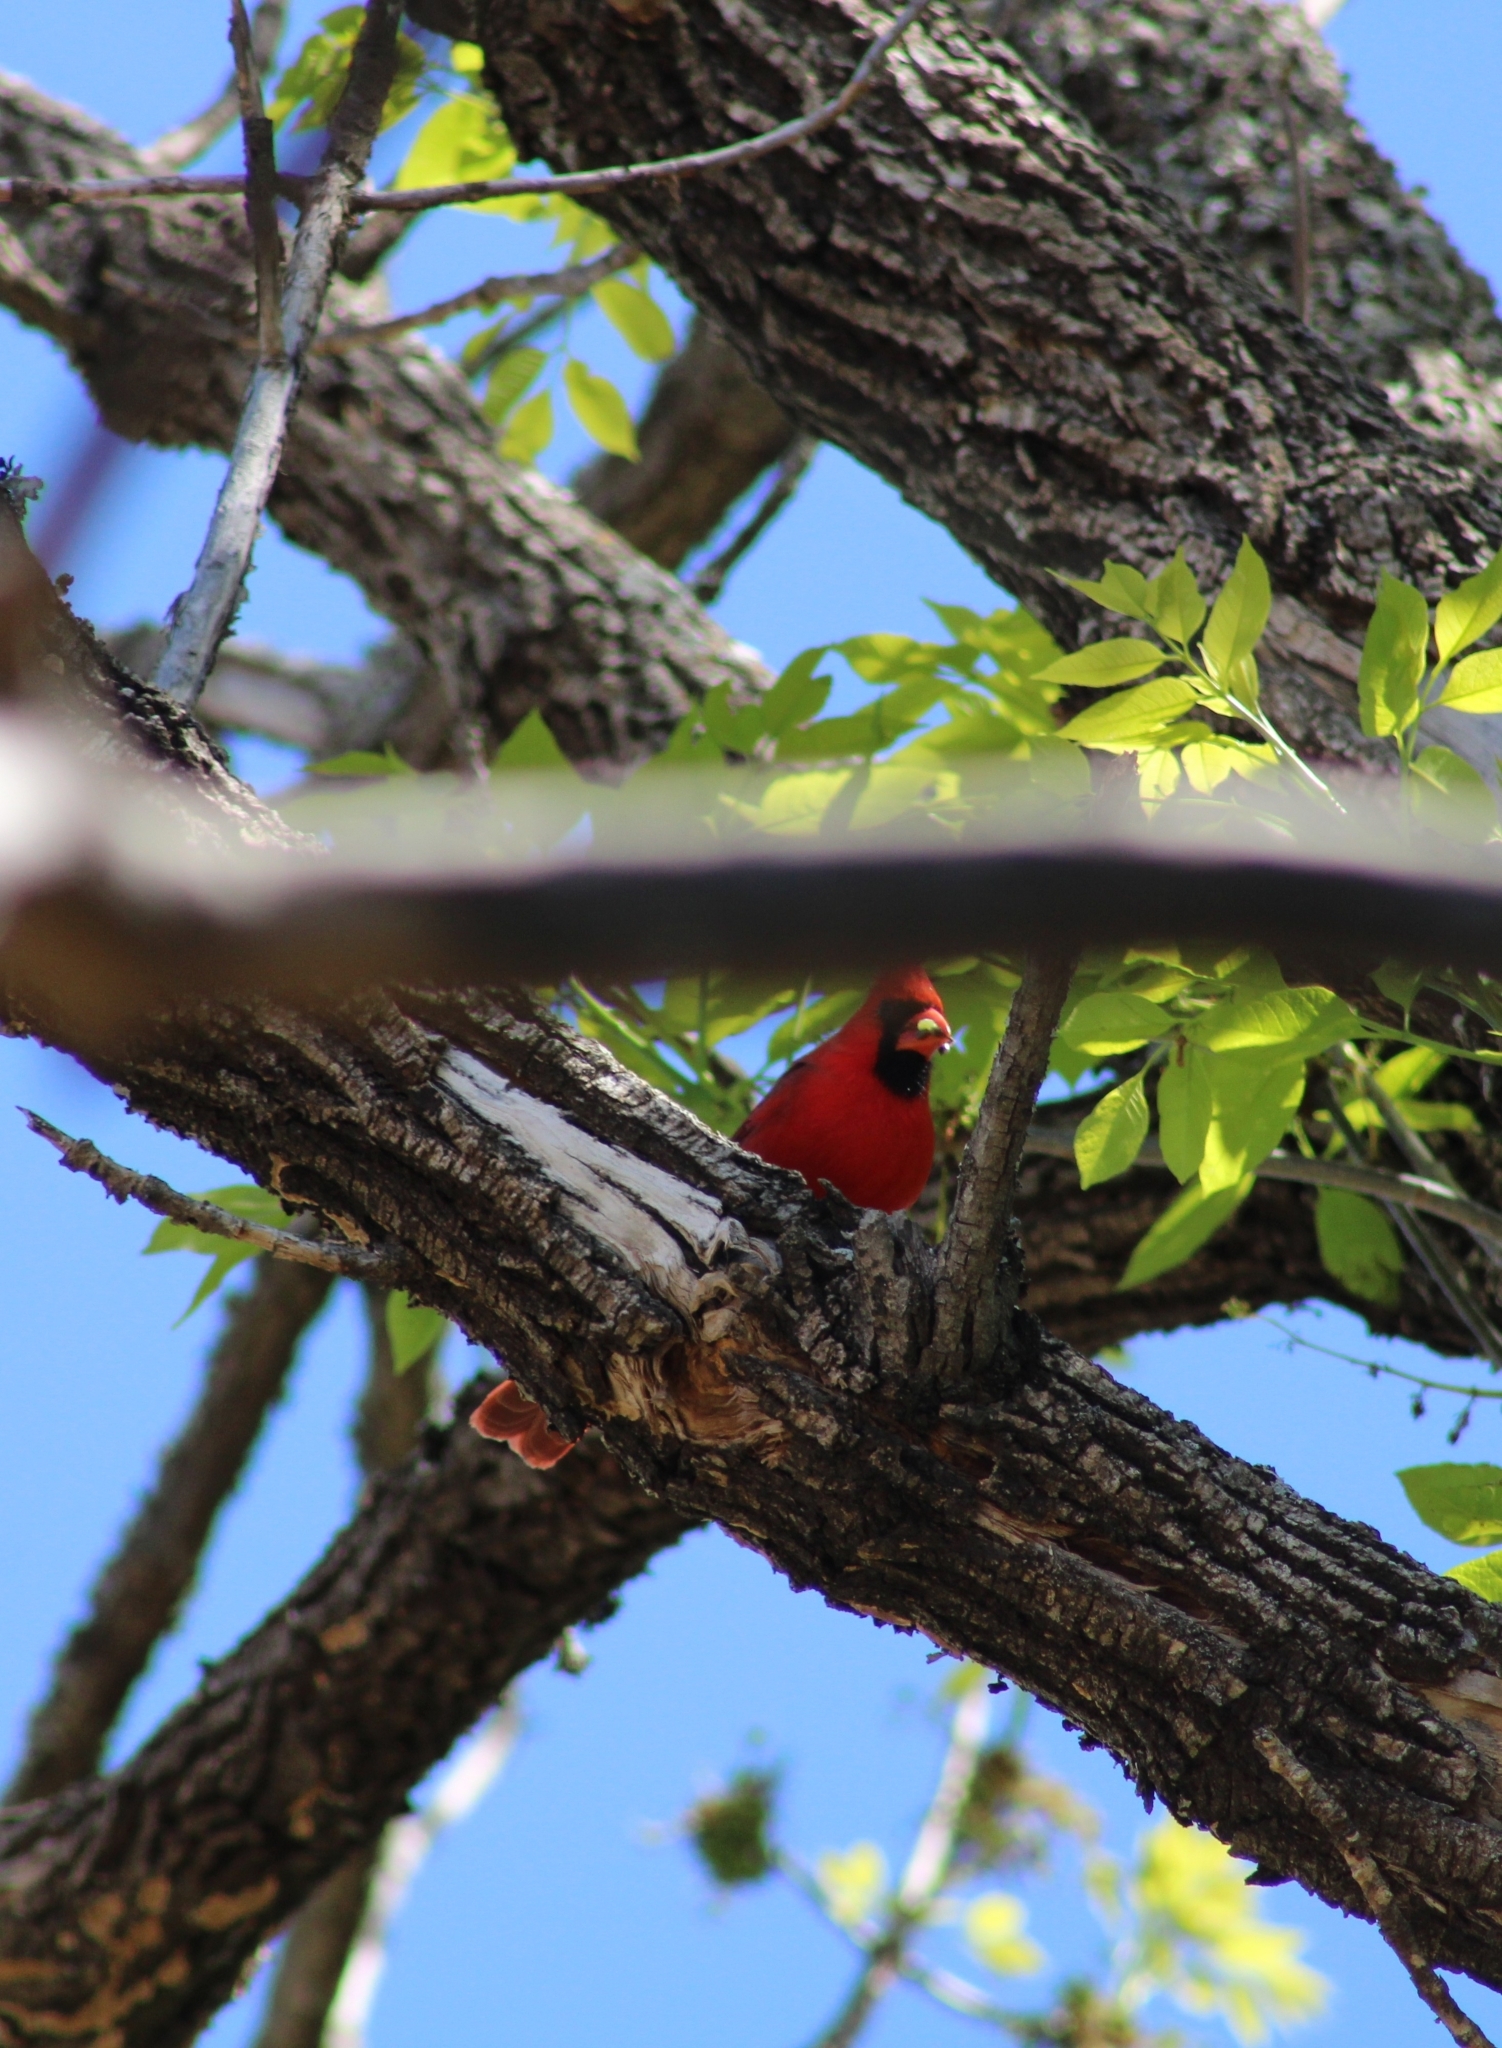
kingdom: Animalia
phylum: Chordata
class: Aves
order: Passeriformes
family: Cardinalidae
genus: Cardinalis
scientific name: Cardinalis cardinalis
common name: Northern cardinal
